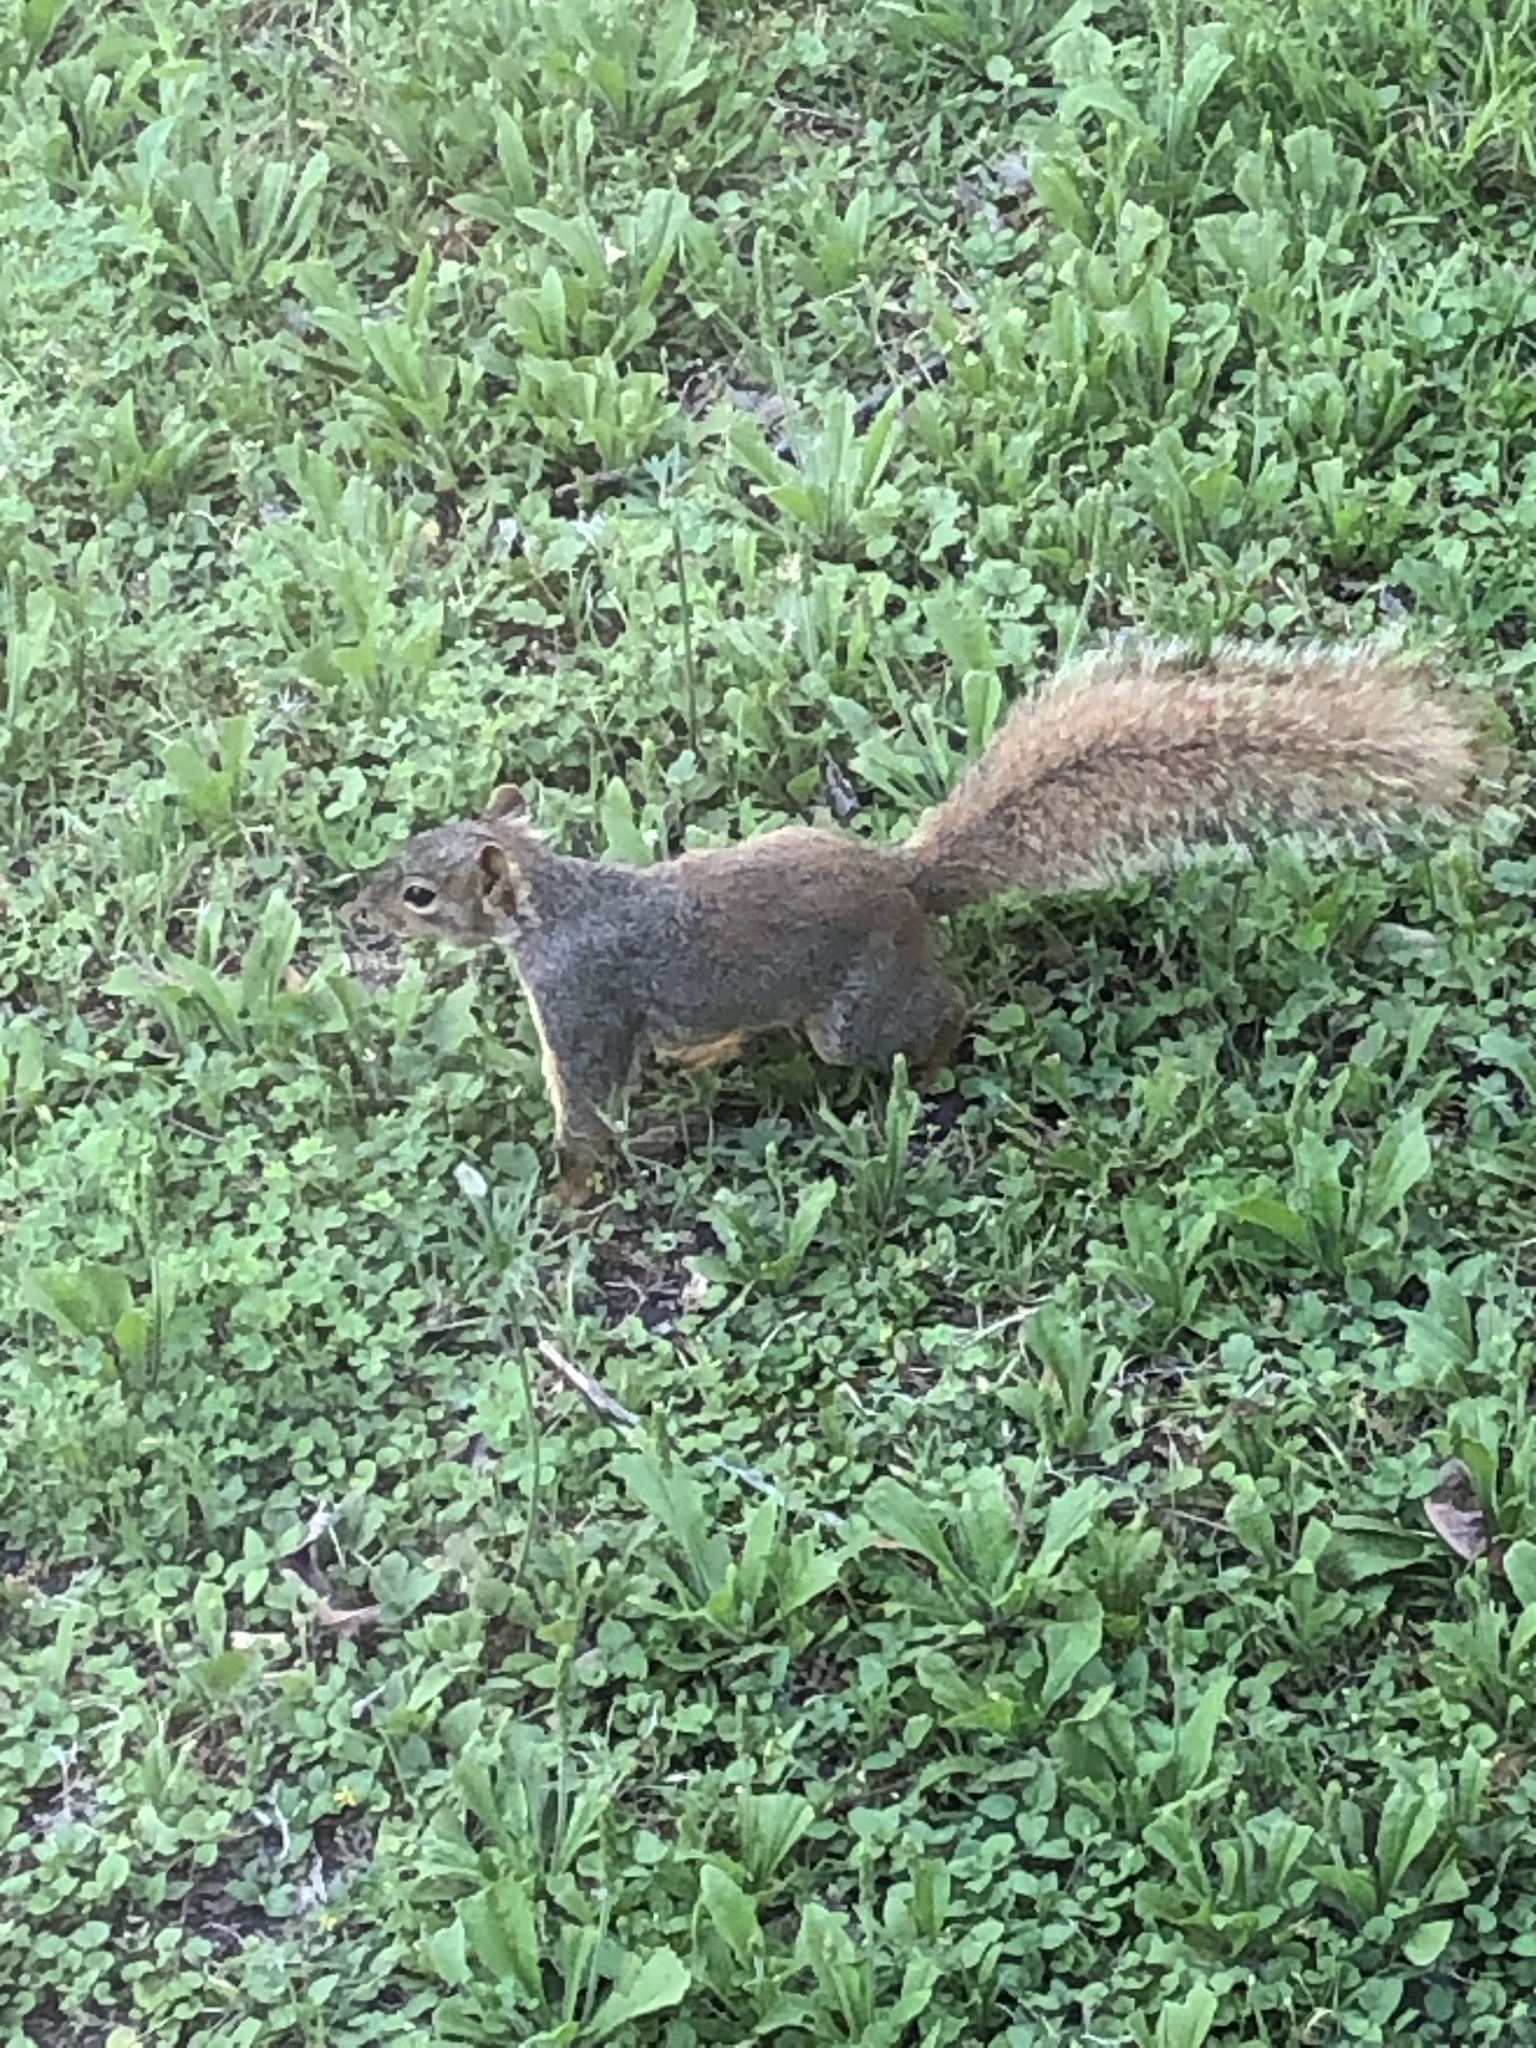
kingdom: Animalia
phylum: Chordata
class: Mammalia
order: Rodentia
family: Sciuridae
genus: Sciurus
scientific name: Sciurus niger
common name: Fox squirrel
